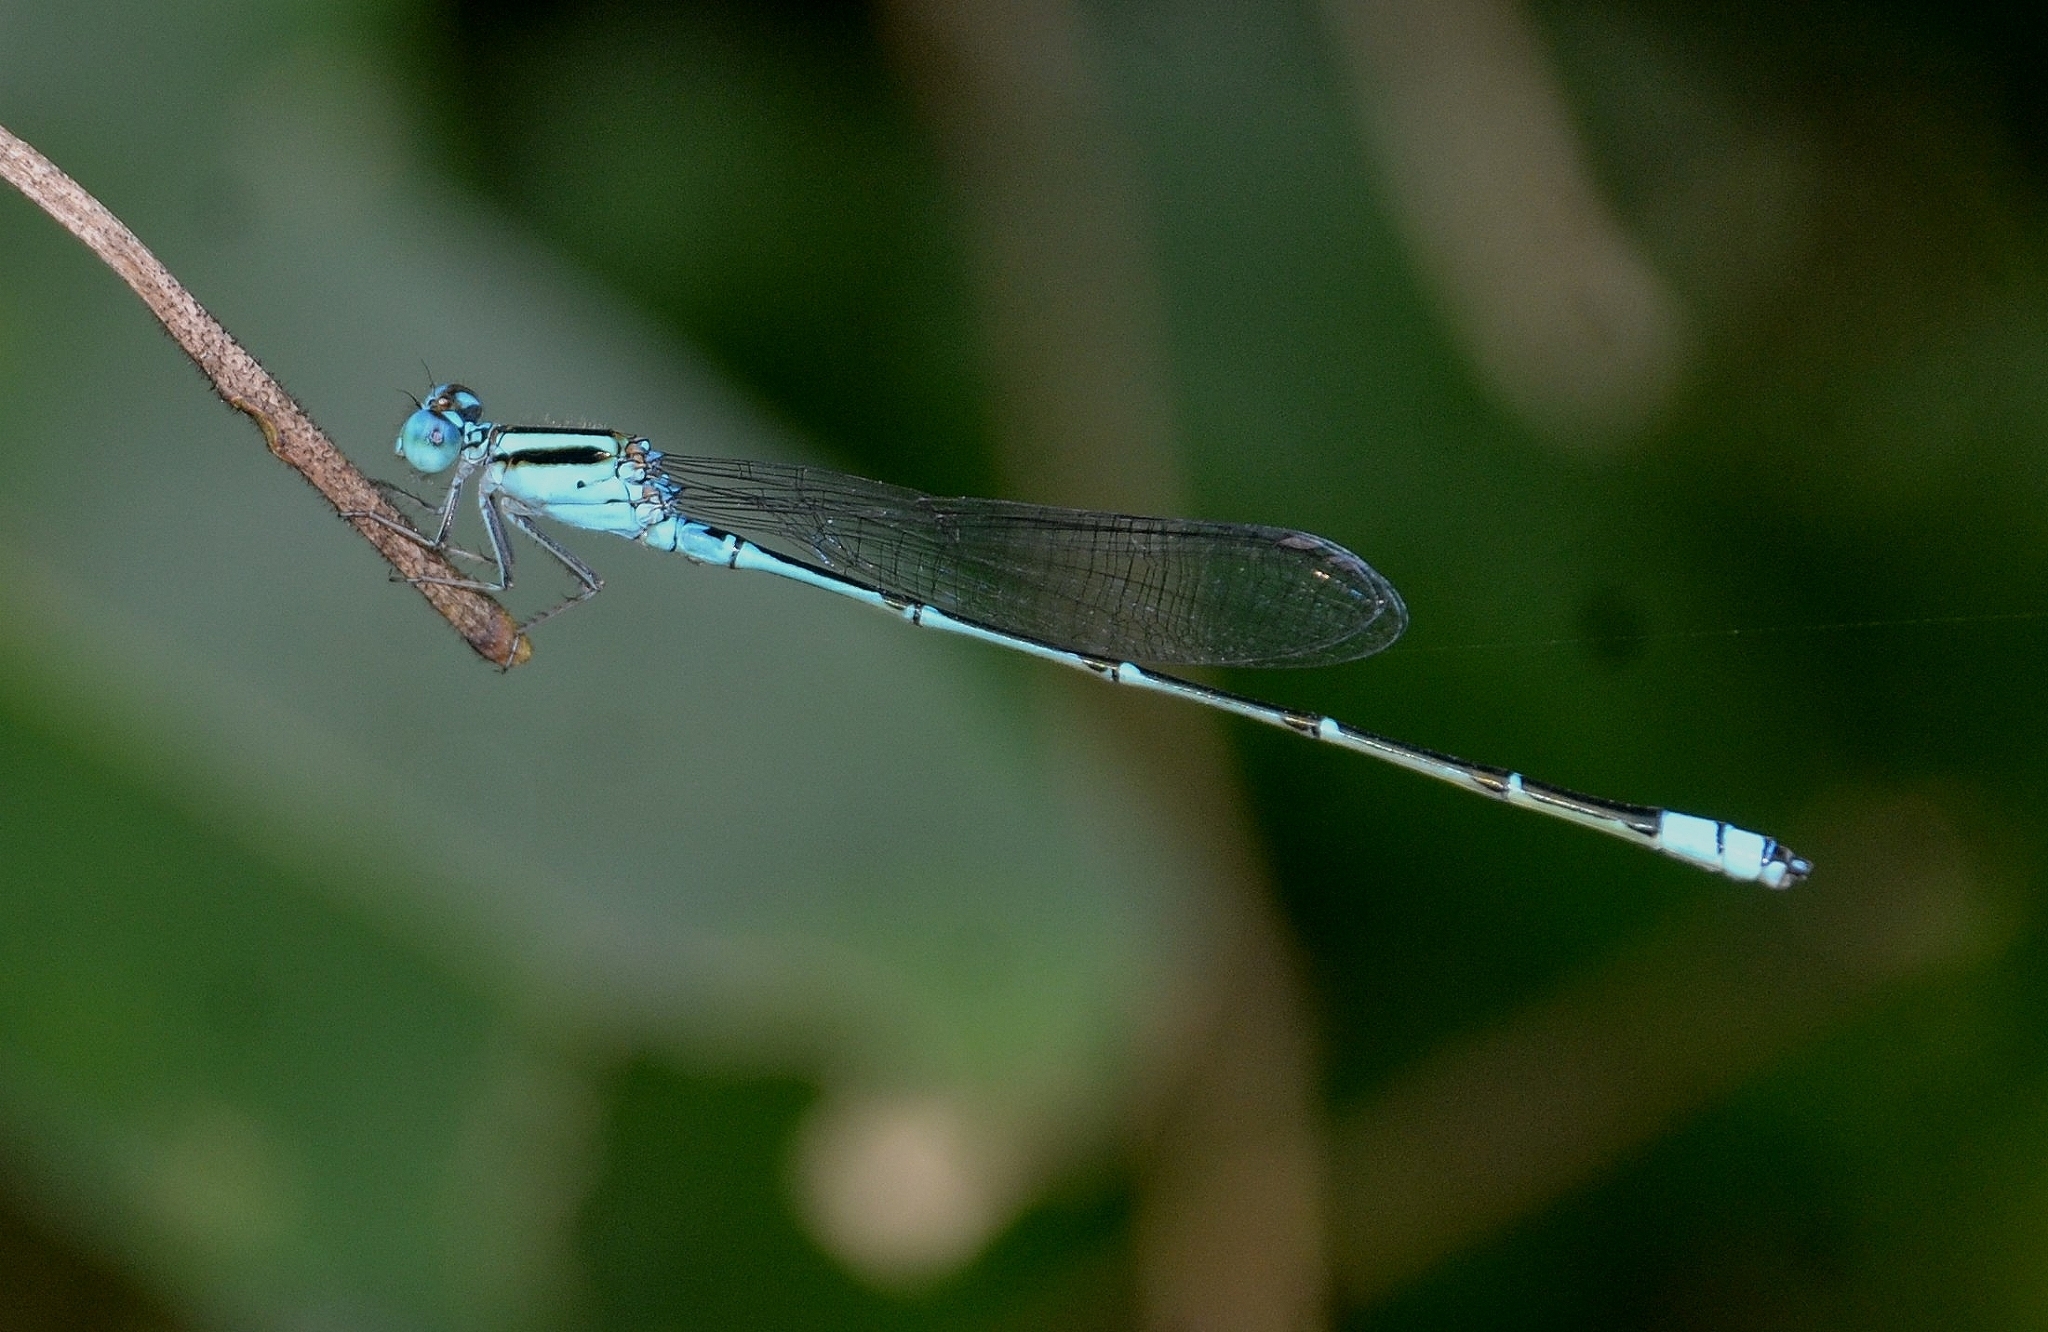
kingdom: Animalia
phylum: Arthropoda
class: Insecta
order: Odonata
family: Coenagrionidae
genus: Pseudagrion
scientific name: Pseudagrion microcephalum
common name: Blue riverdamsel
